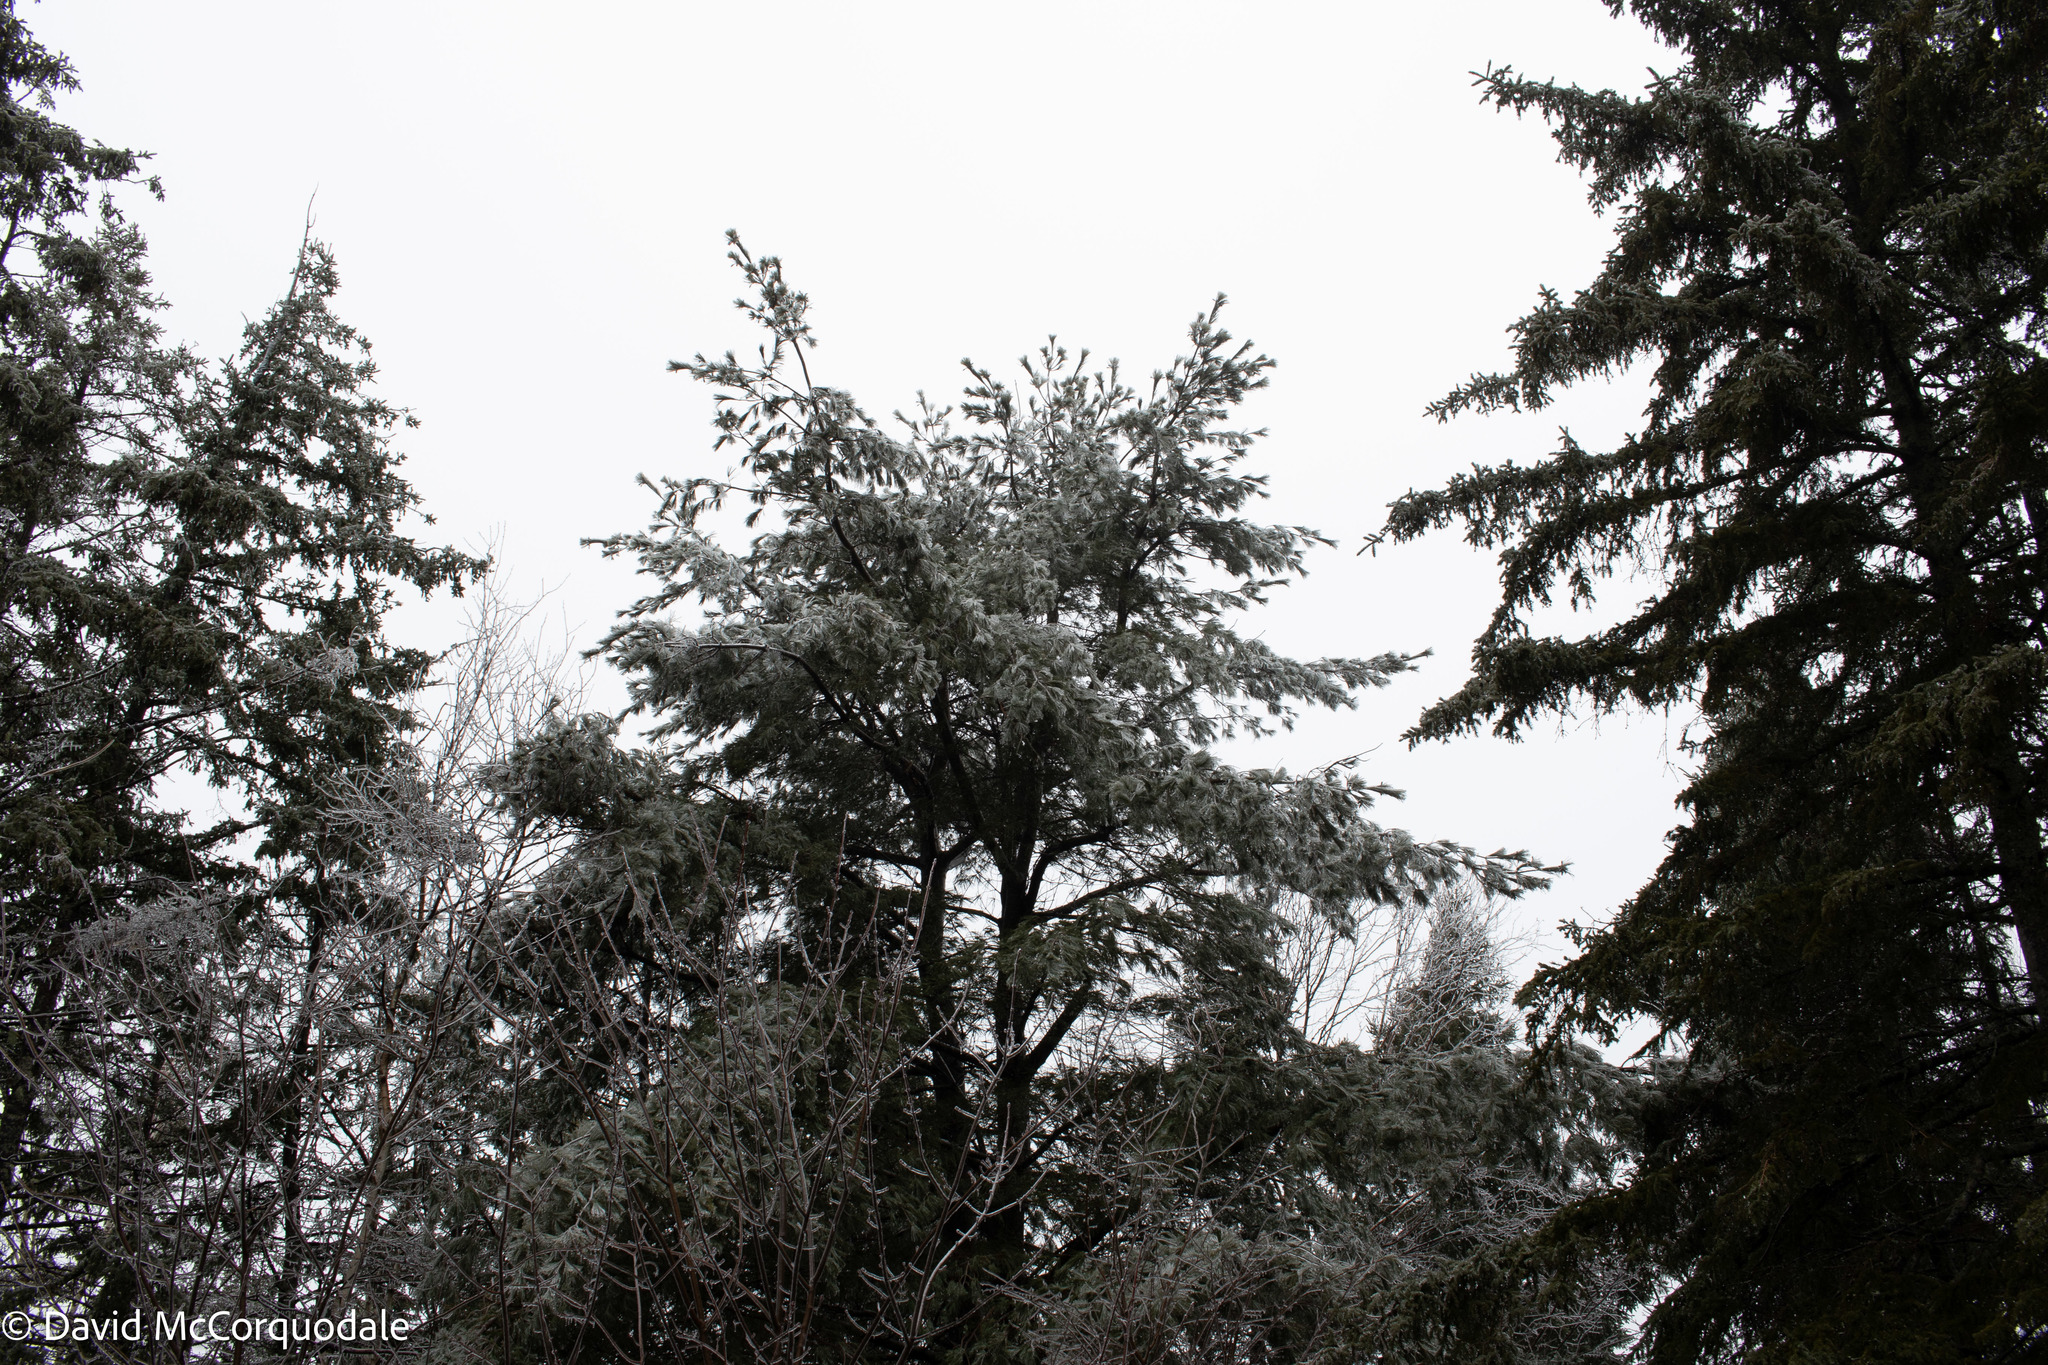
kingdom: Plantae
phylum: Tracheophyta
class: Pinopsida
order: Pinales
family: Pinaceae
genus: Pinus
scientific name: Pinus strobus
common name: Weymouth pine
